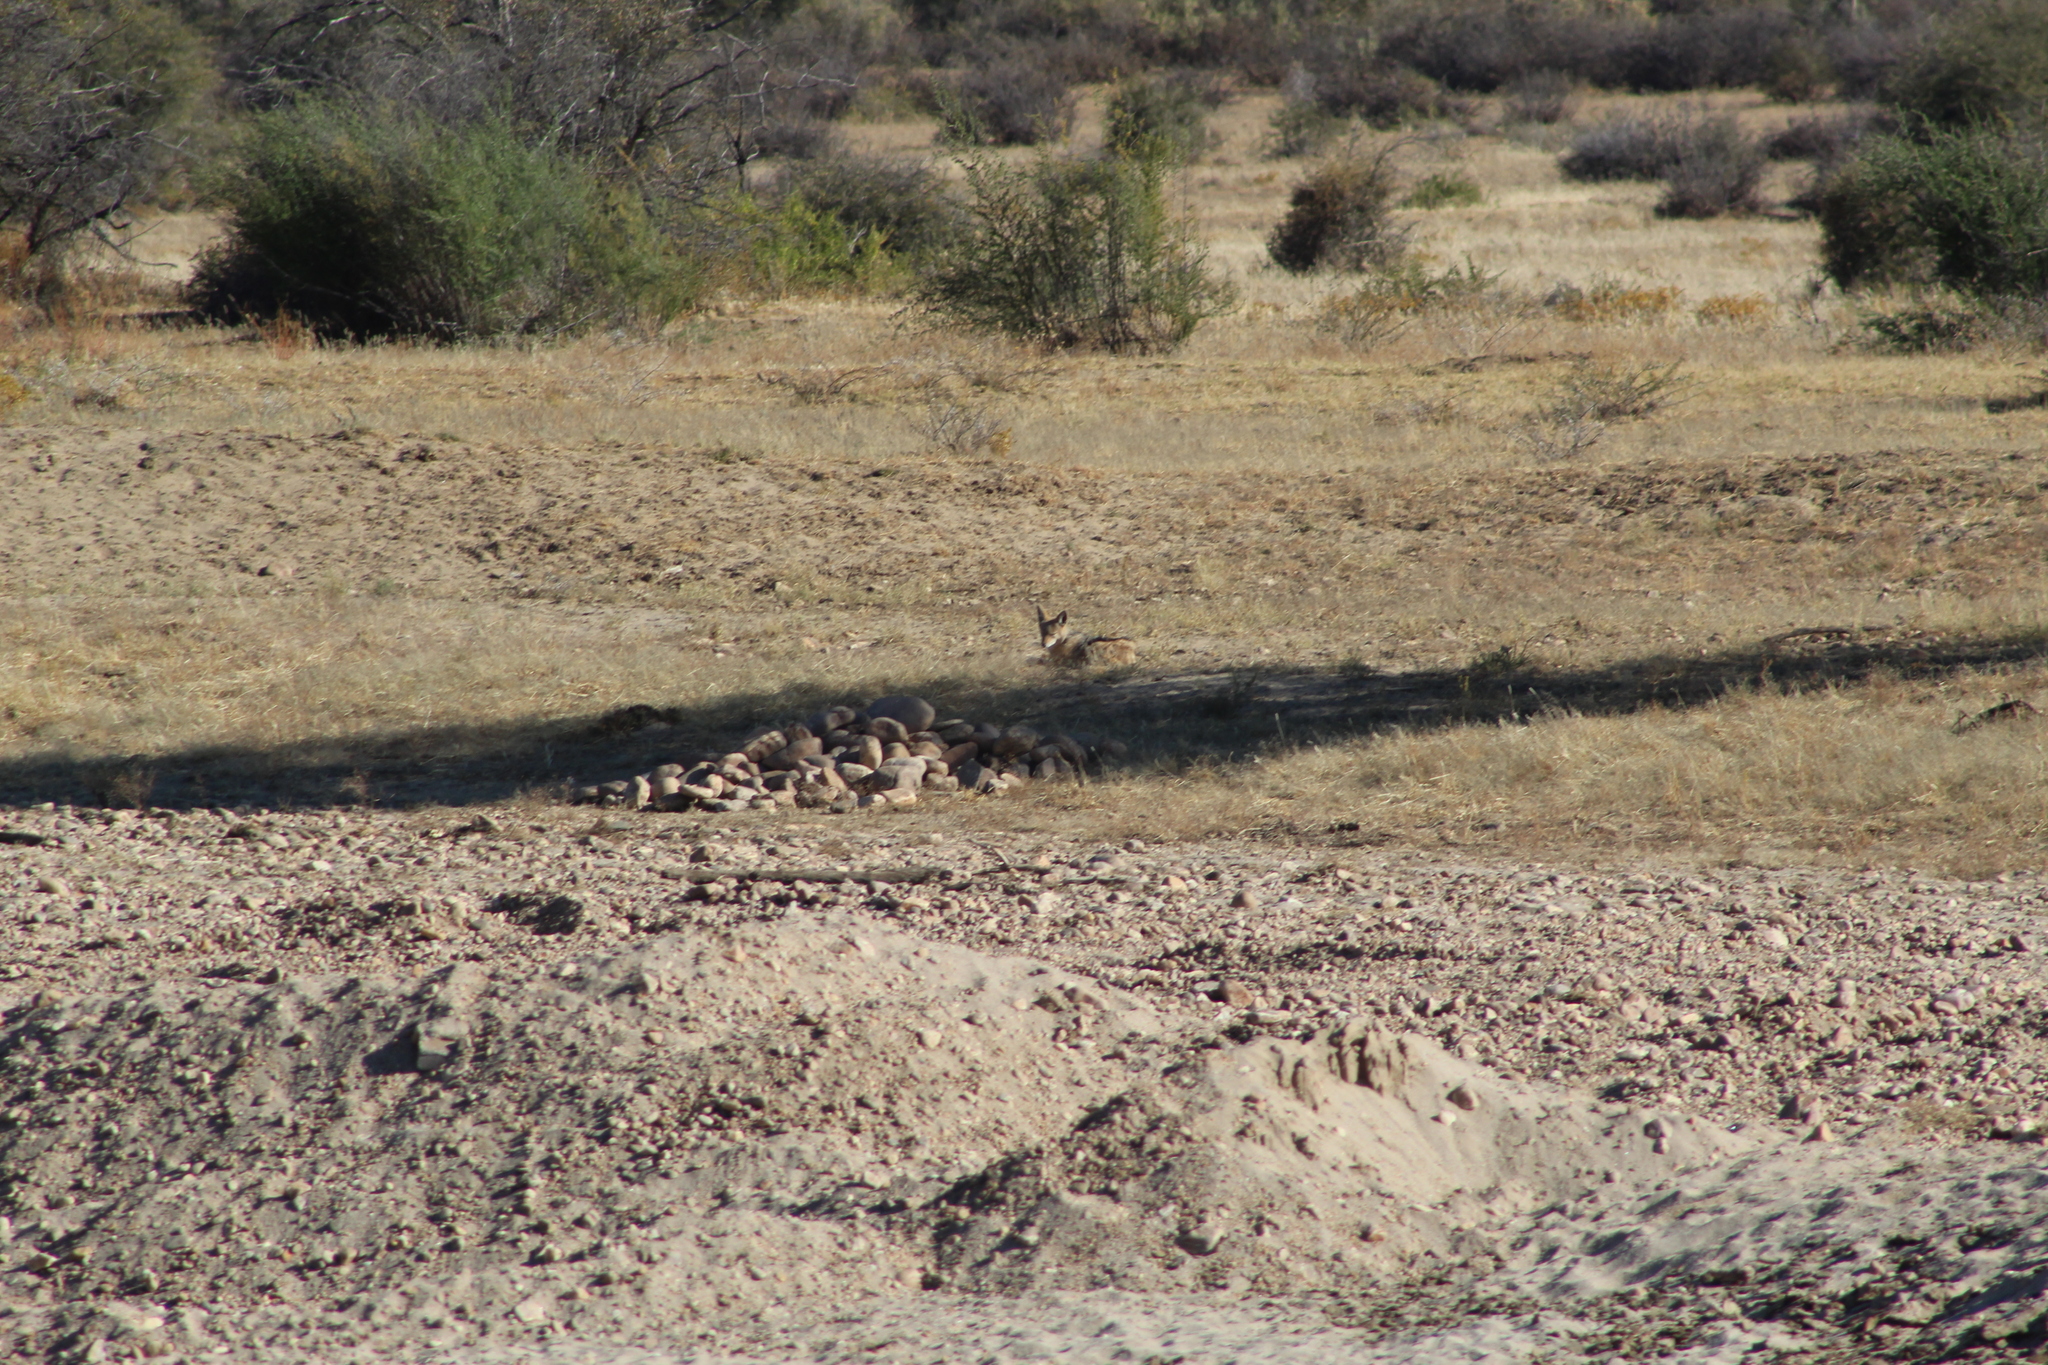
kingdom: Animalia
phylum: Chordata
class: Mammalia
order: Carnivora
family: Canidae
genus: Lupulella
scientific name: Lupulella
